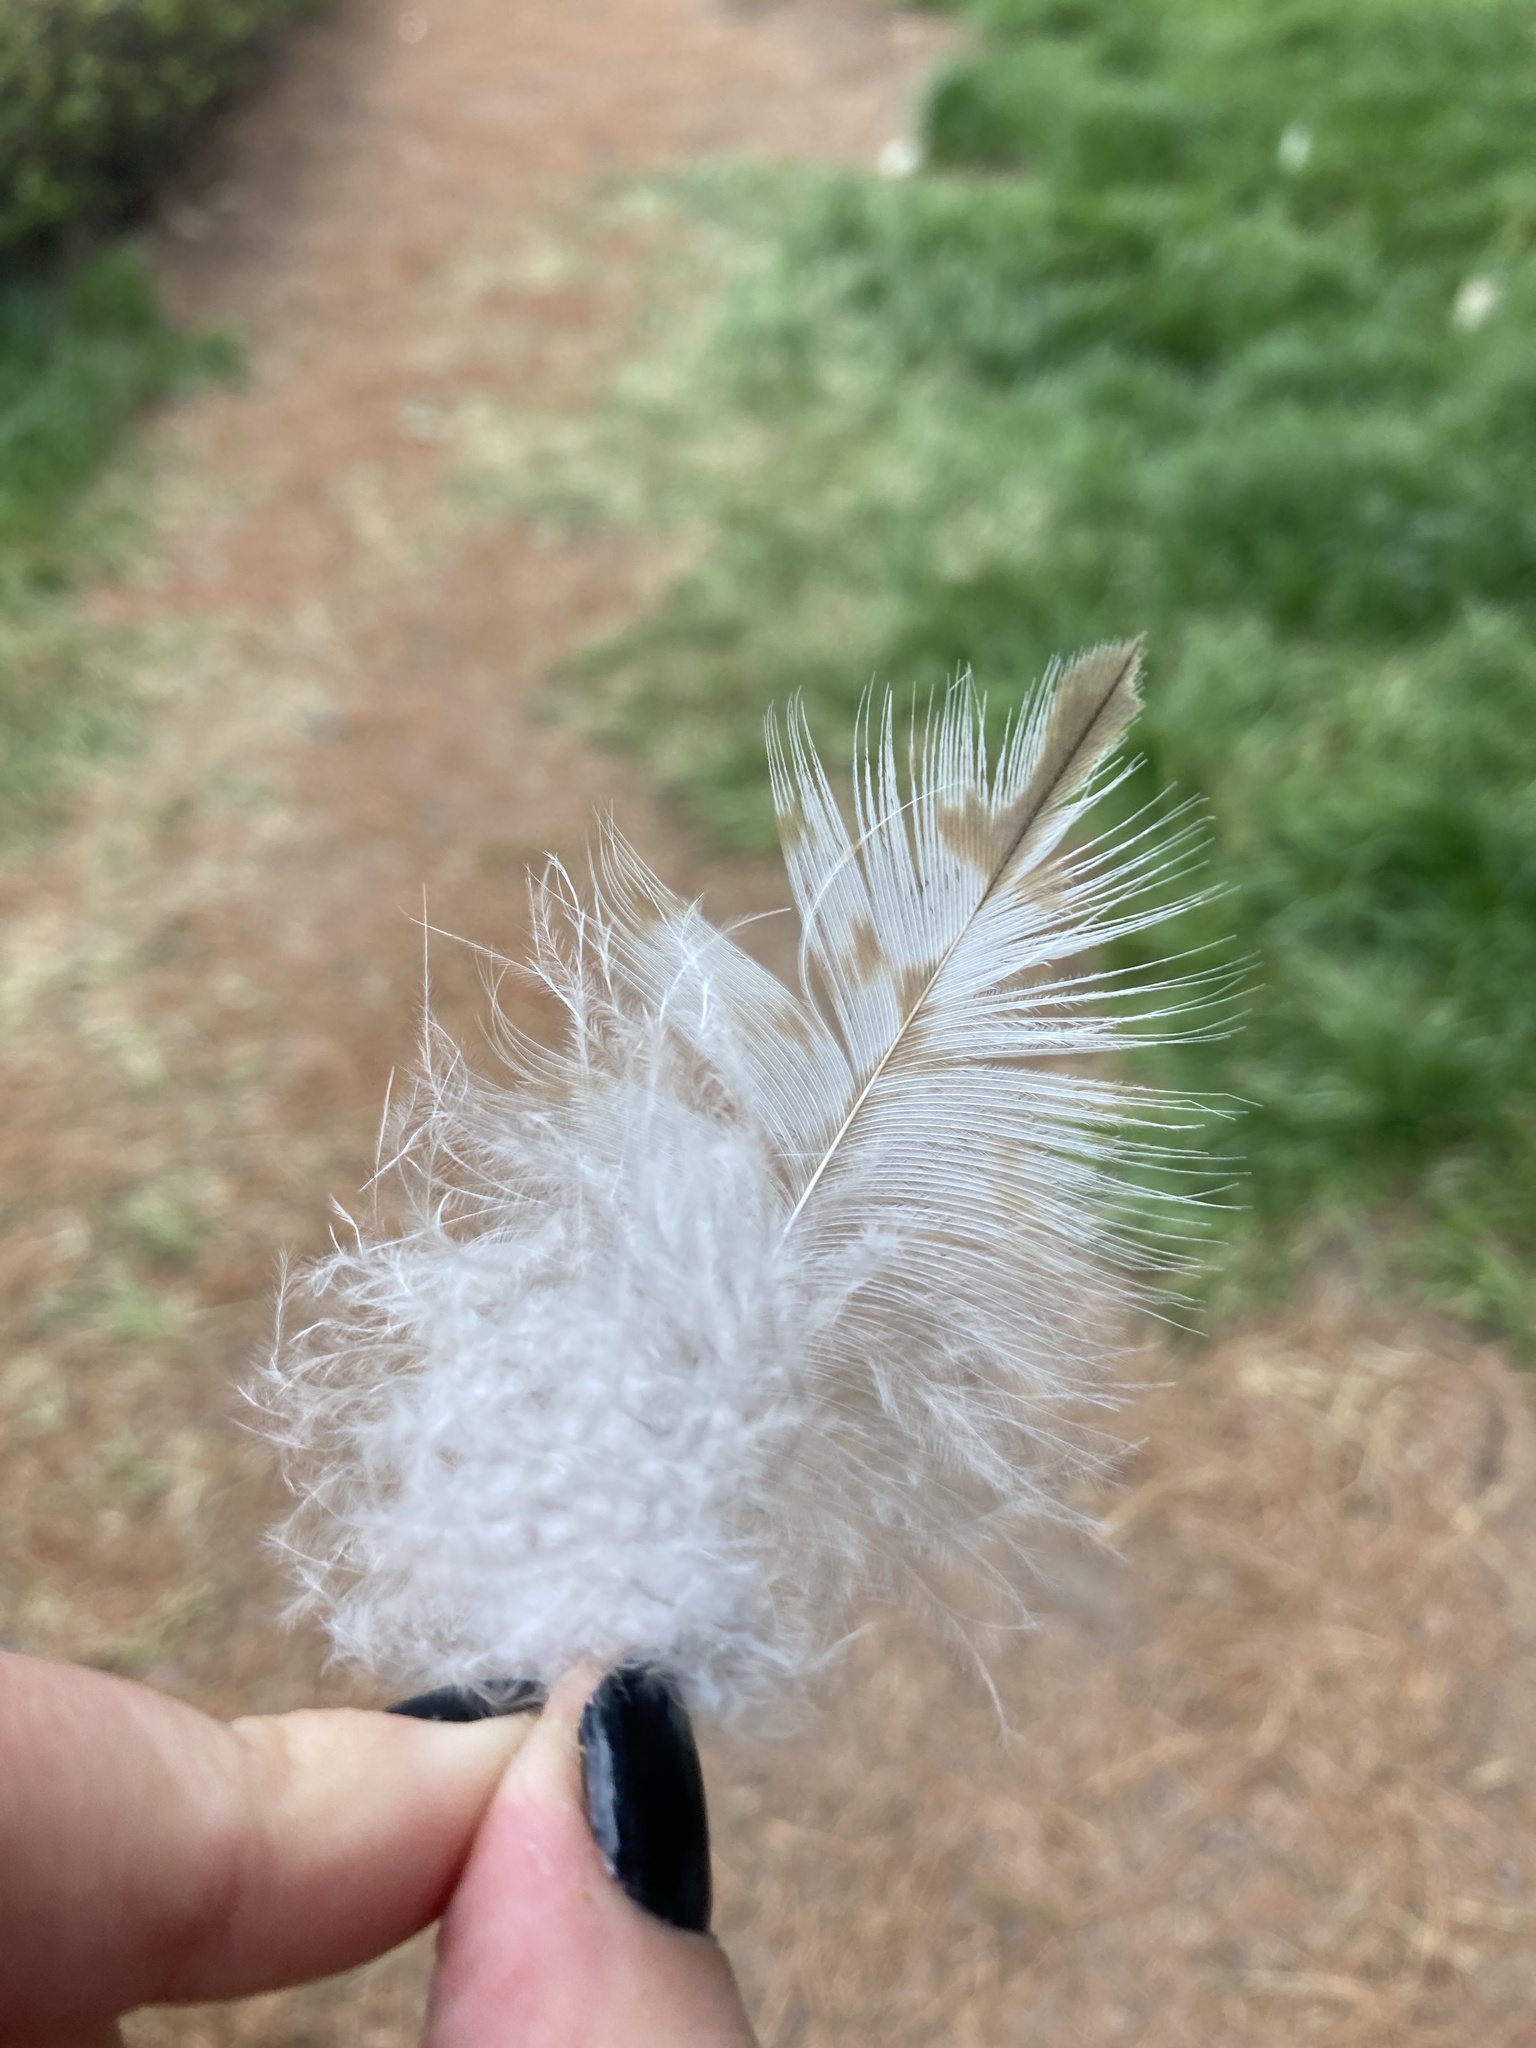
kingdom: Animalia
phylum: Chordata
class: Aves
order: Accipitriformes
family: Accipitridae
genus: Buteo
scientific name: Buteo jamaicensis
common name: Red-tailed hawk
